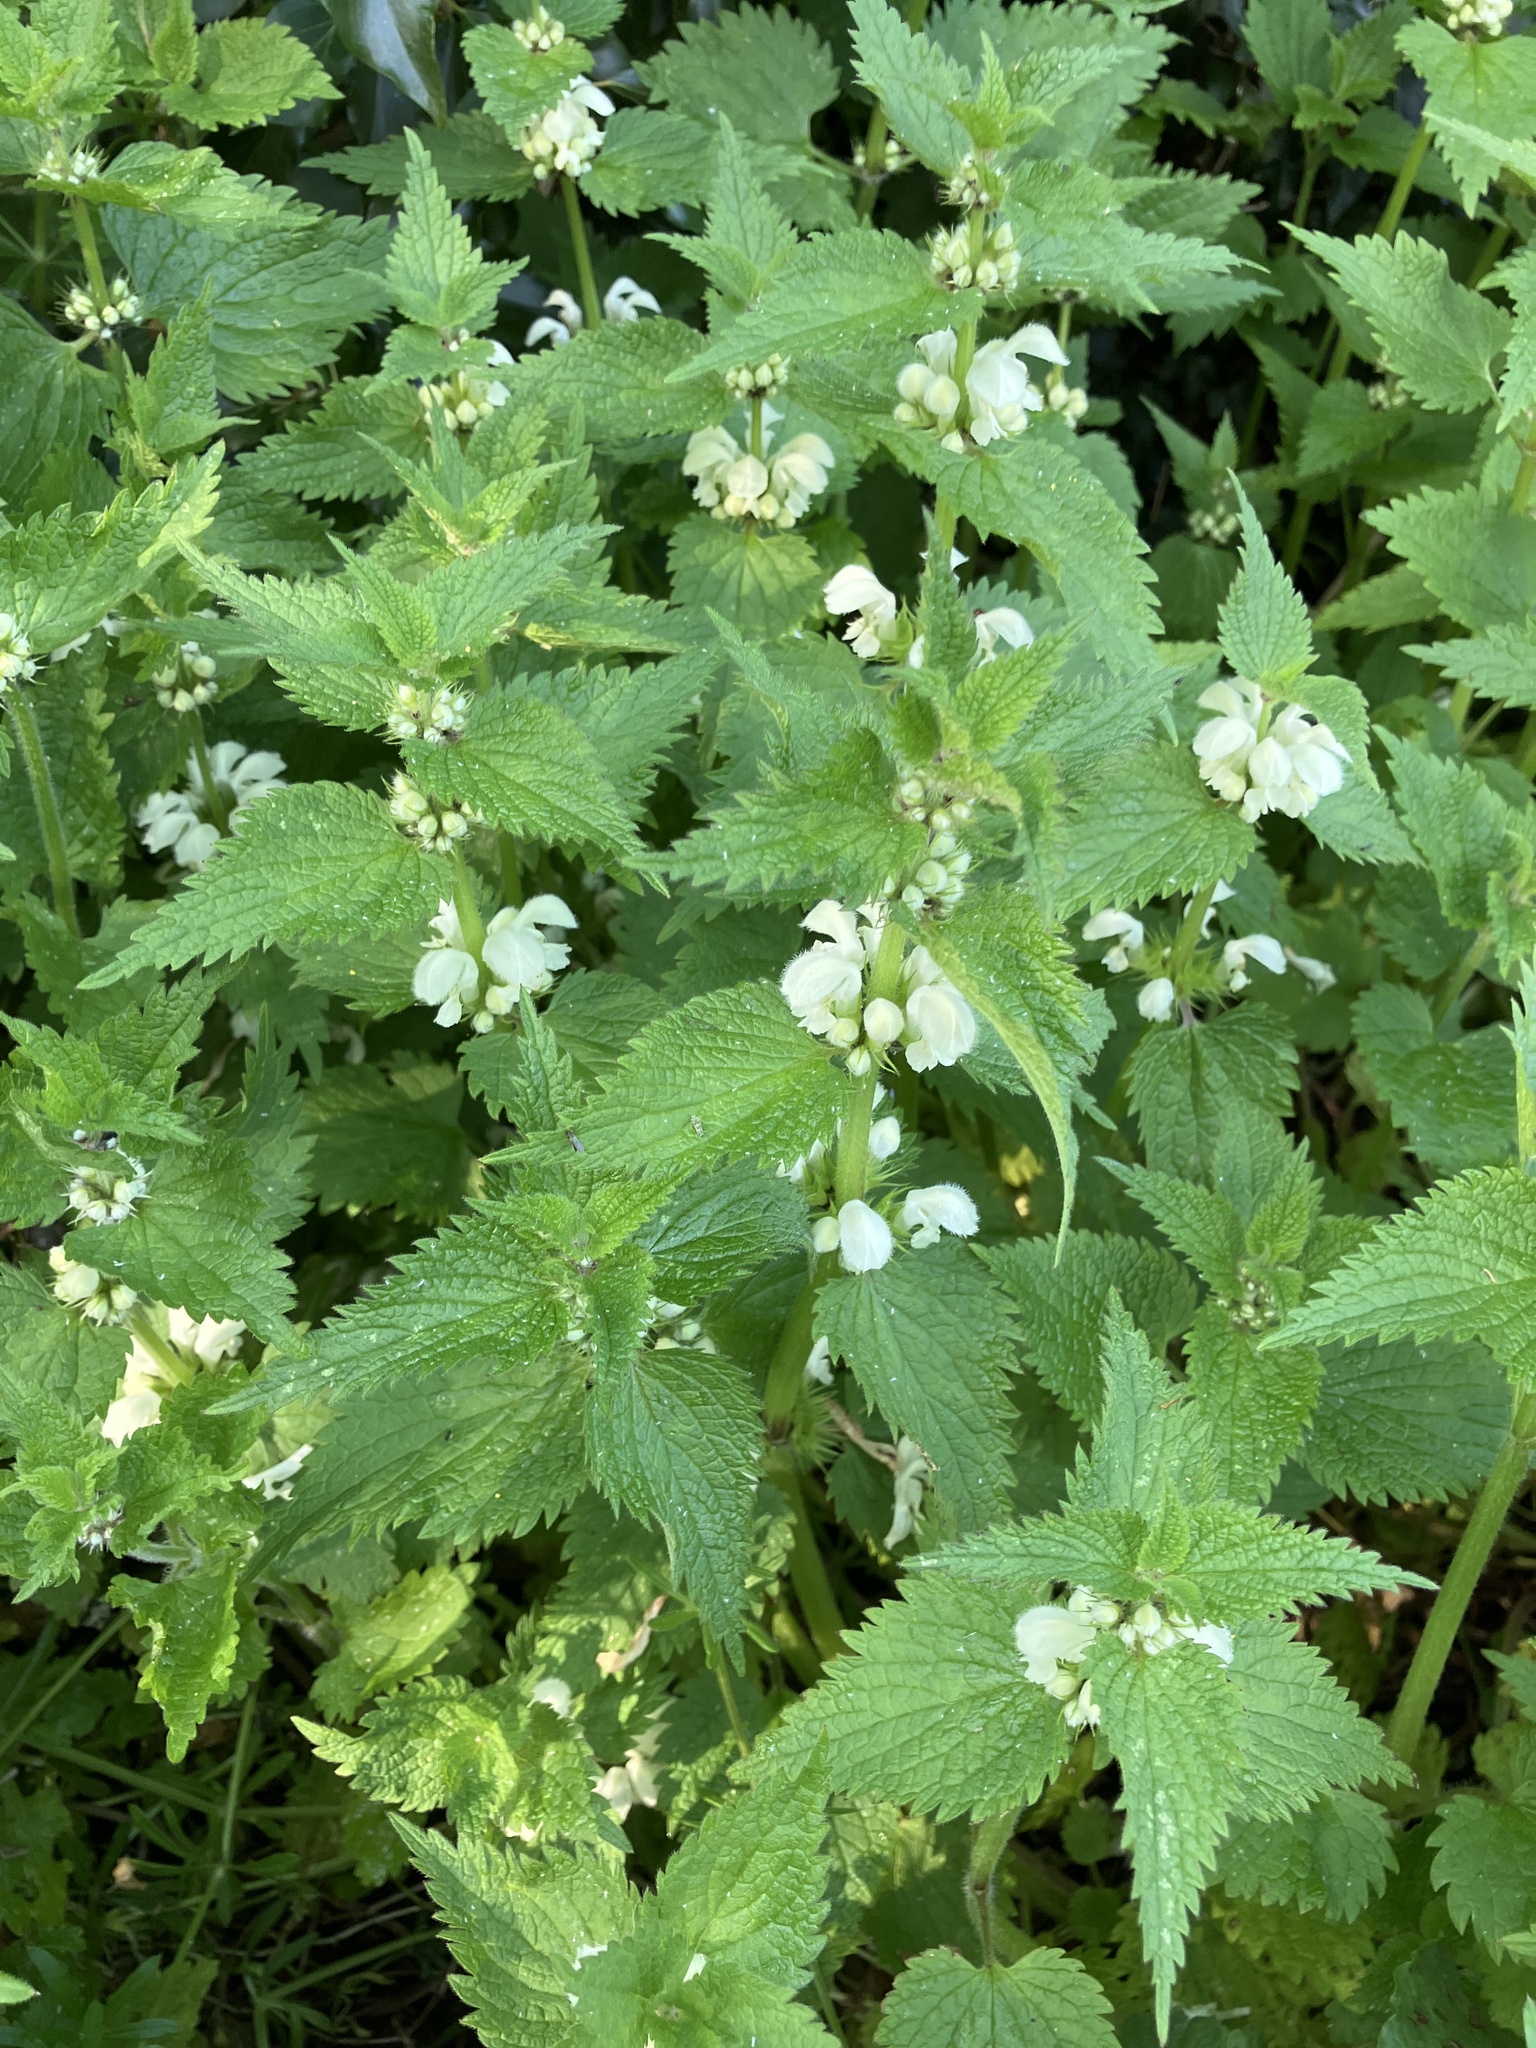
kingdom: Plantae
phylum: Tracheophyta
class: Magnoliopsida
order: Lamiales
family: Lamiaceae
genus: Lamium
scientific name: Lamium album
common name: White dead-nettle
